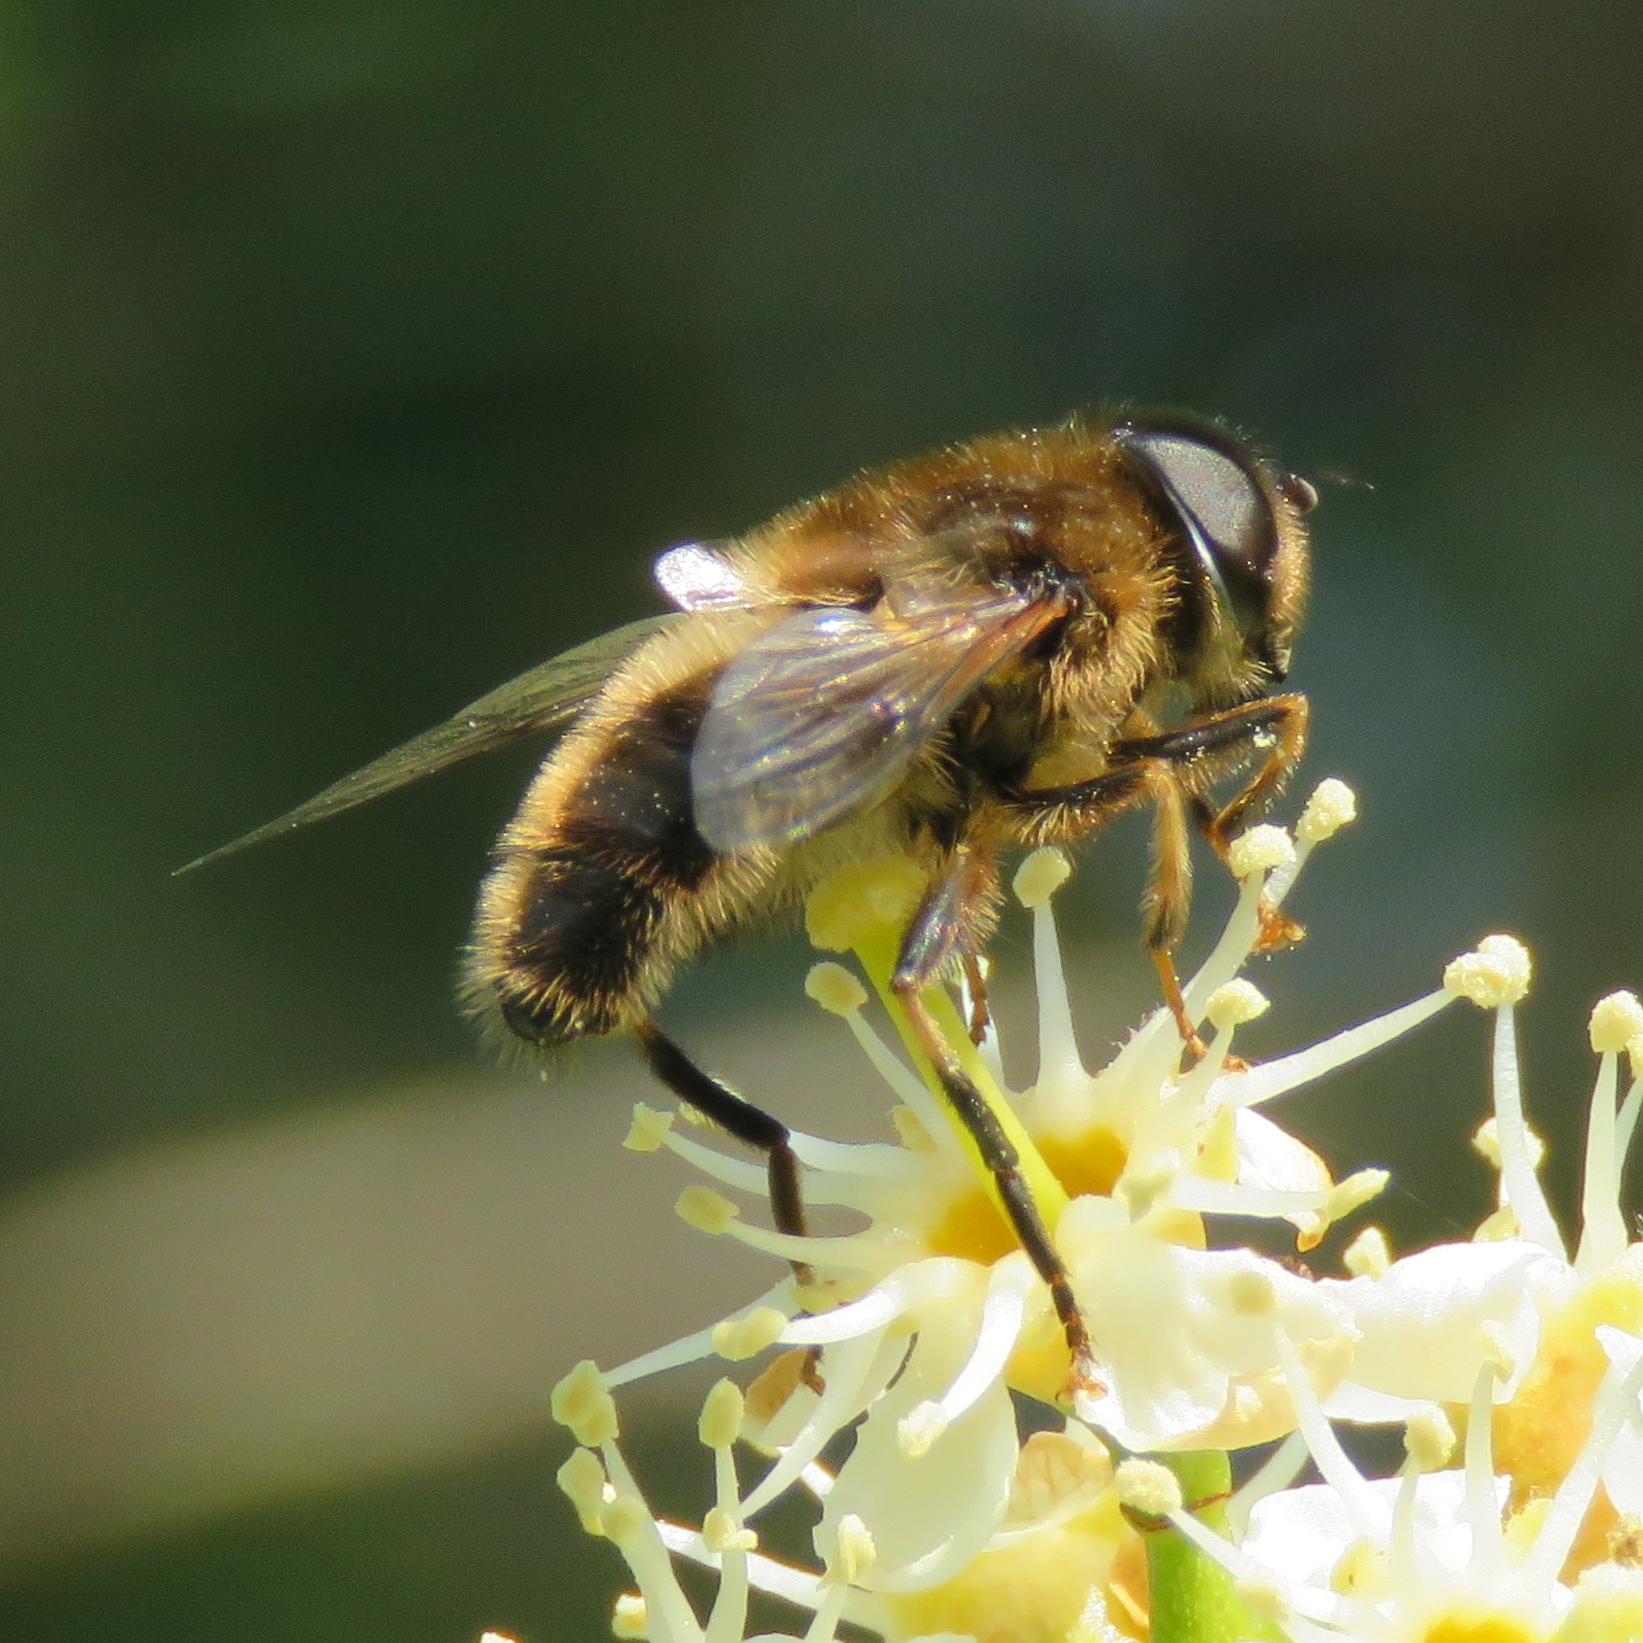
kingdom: Animalia
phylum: Arthropoda
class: Insecta
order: Diptera
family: Syrphidae
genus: Eristalis
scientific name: Eristalis pertinax
